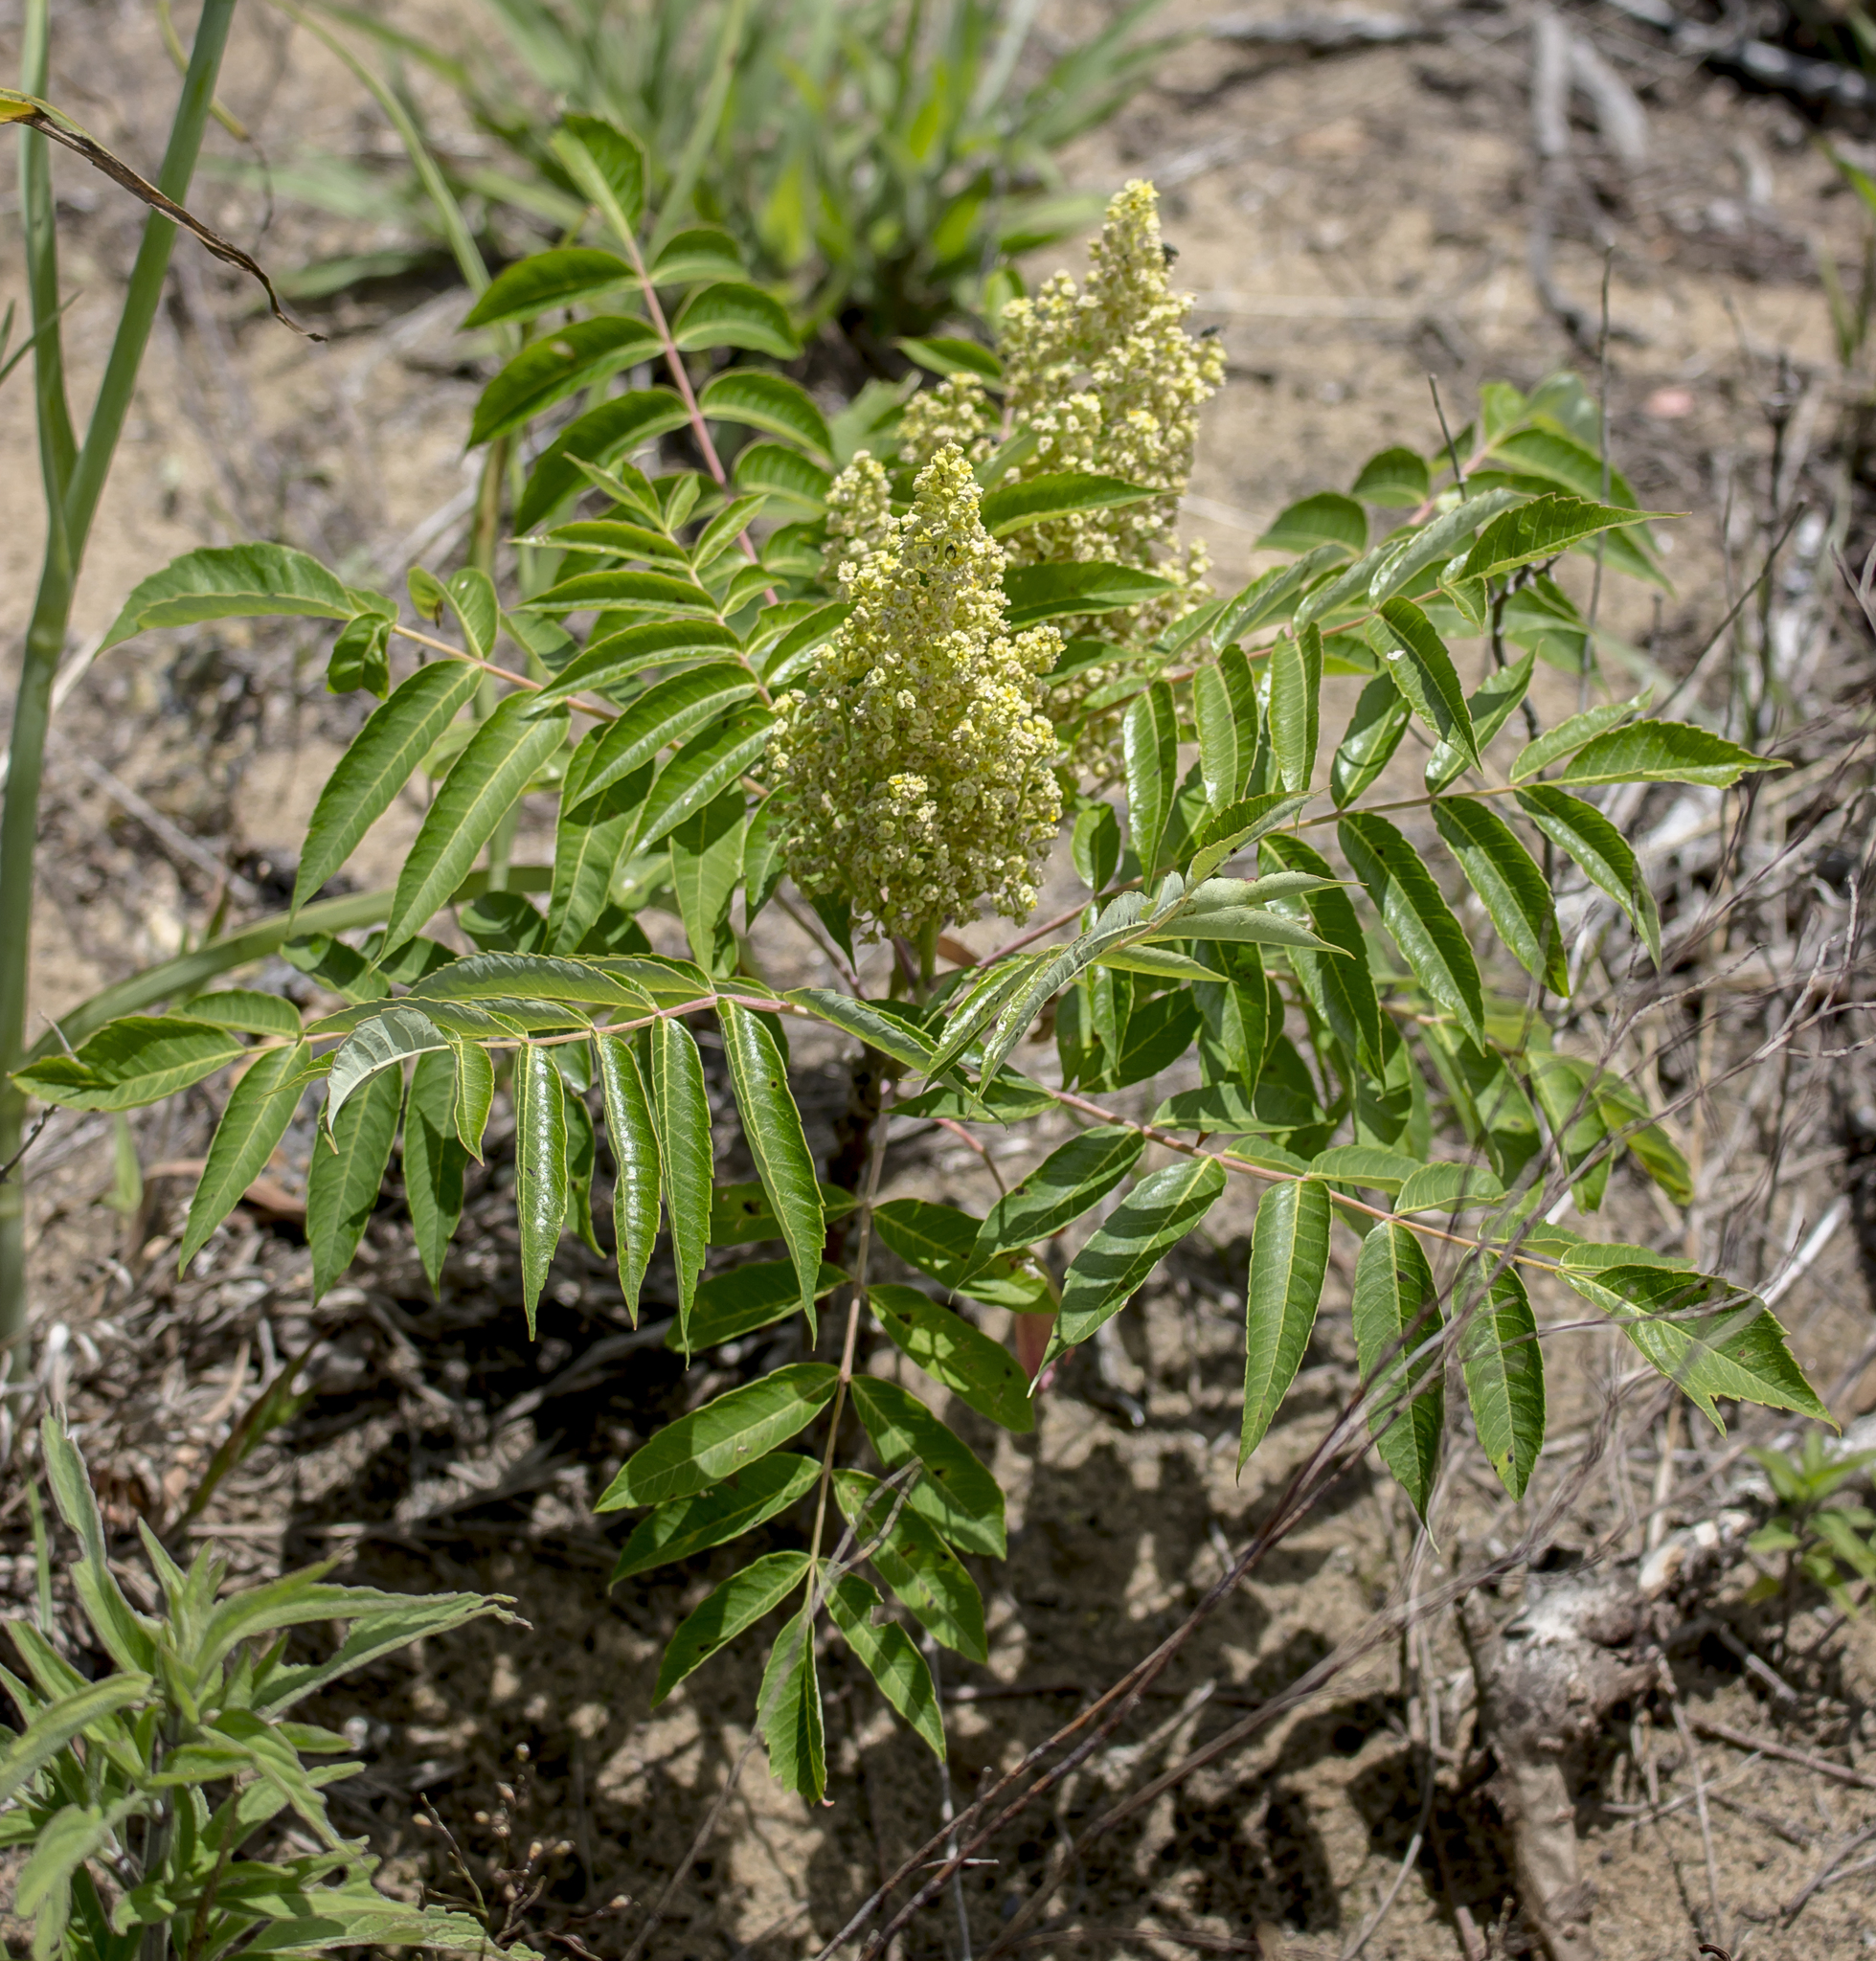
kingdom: Plantae
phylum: Tracheophyta
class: Magnoliopsida
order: Sapindales
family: Anacardiaceae
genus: Rhus
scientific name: Rhus glabra
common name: Scarlet sumac
